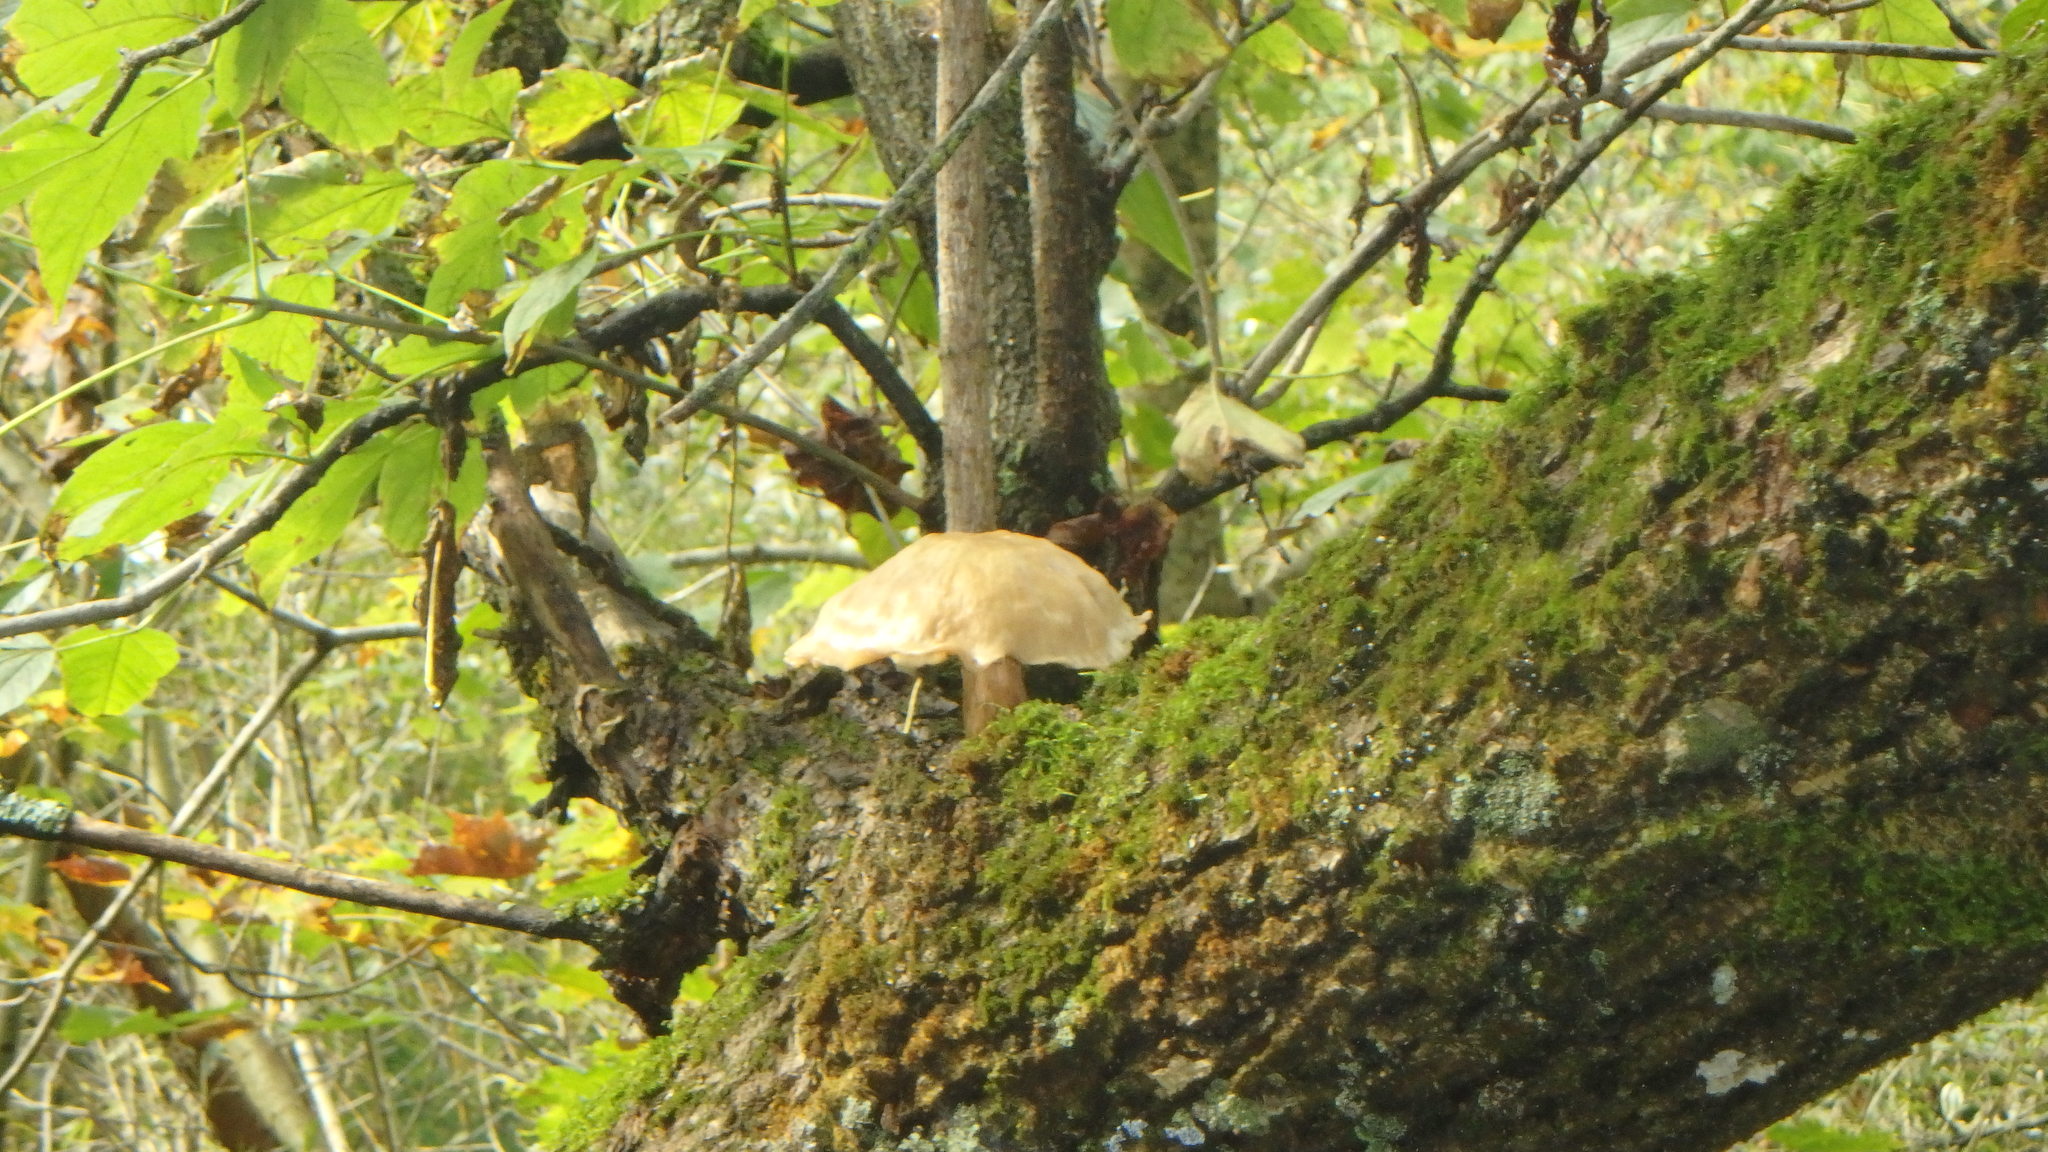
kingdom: Fungi
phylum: Basidiomycota
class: Agaricomycetes
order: Agaricales
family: Lyophyllaceae
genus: Hypsizygus
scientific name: Hypsizygus ulmarius
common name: Elm leech
